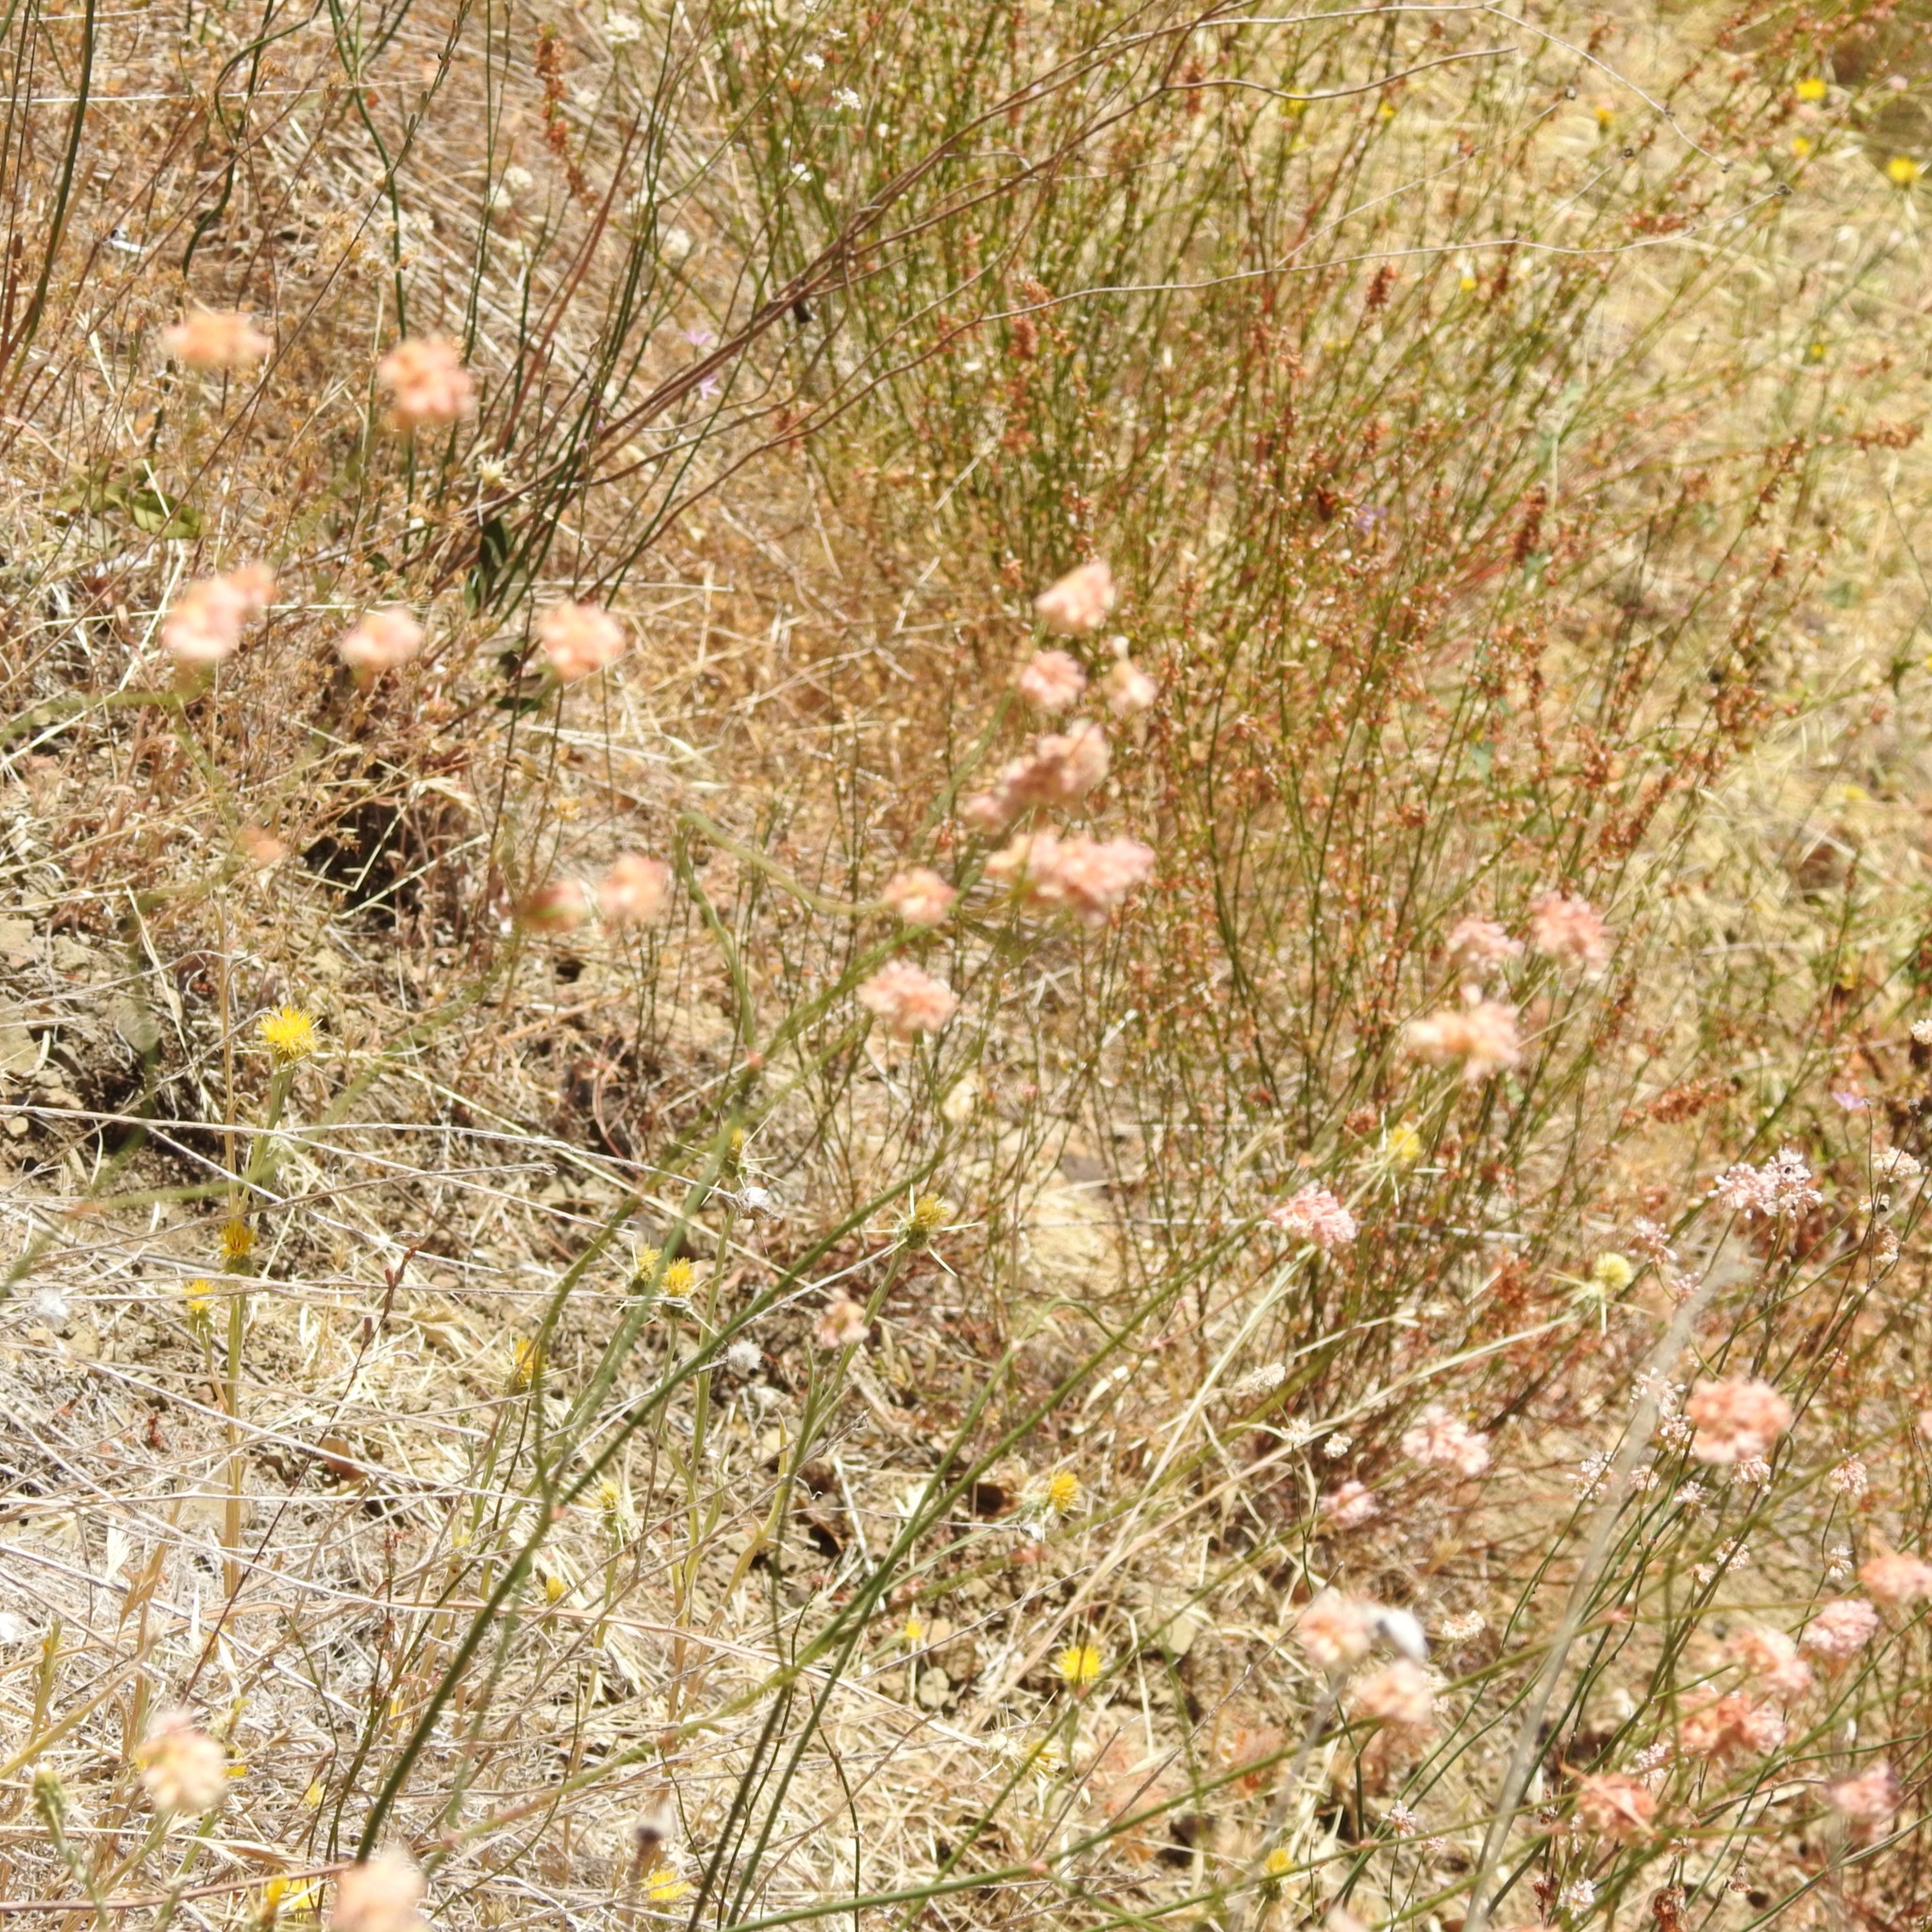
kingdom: Plantae
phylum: Tracheophyta
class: Magnoliopsida
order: Caryophyllales
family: Polygonaceae
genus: Eriogonum
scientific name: Eriogonum nudum
